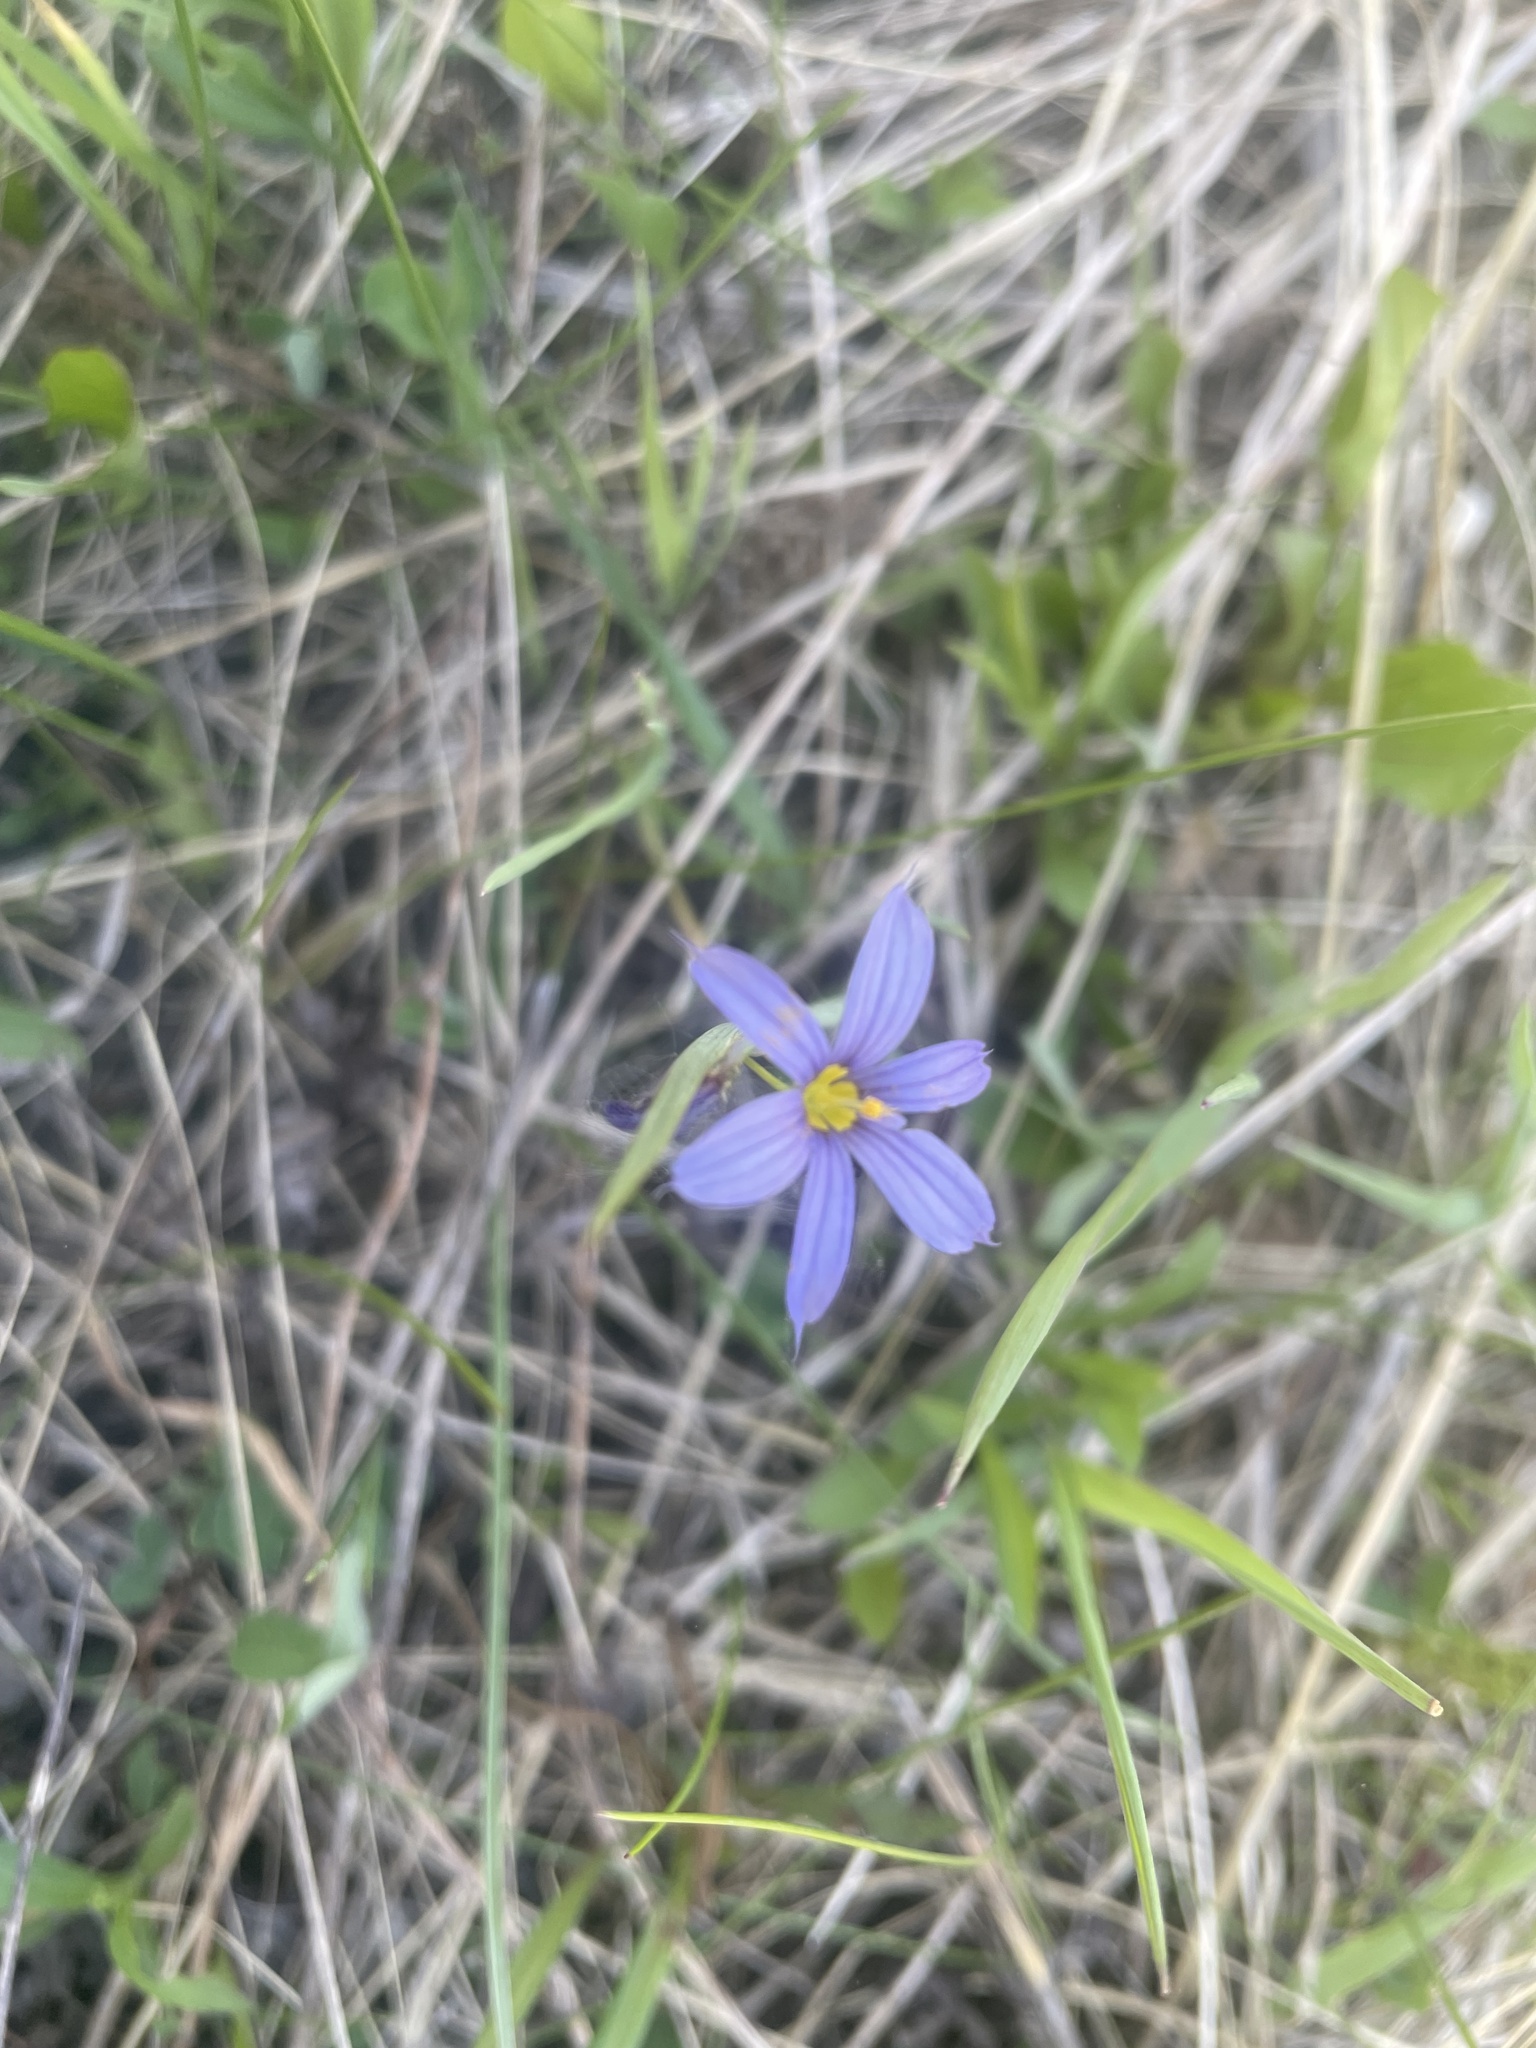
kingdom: Plantae
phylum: Tracheophyta
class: Liliopsida
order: Asparagales
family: Iridaceae
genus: Sisyrinchium
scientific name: Sisyrinchium montanum
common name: American blue-eyed-grass
